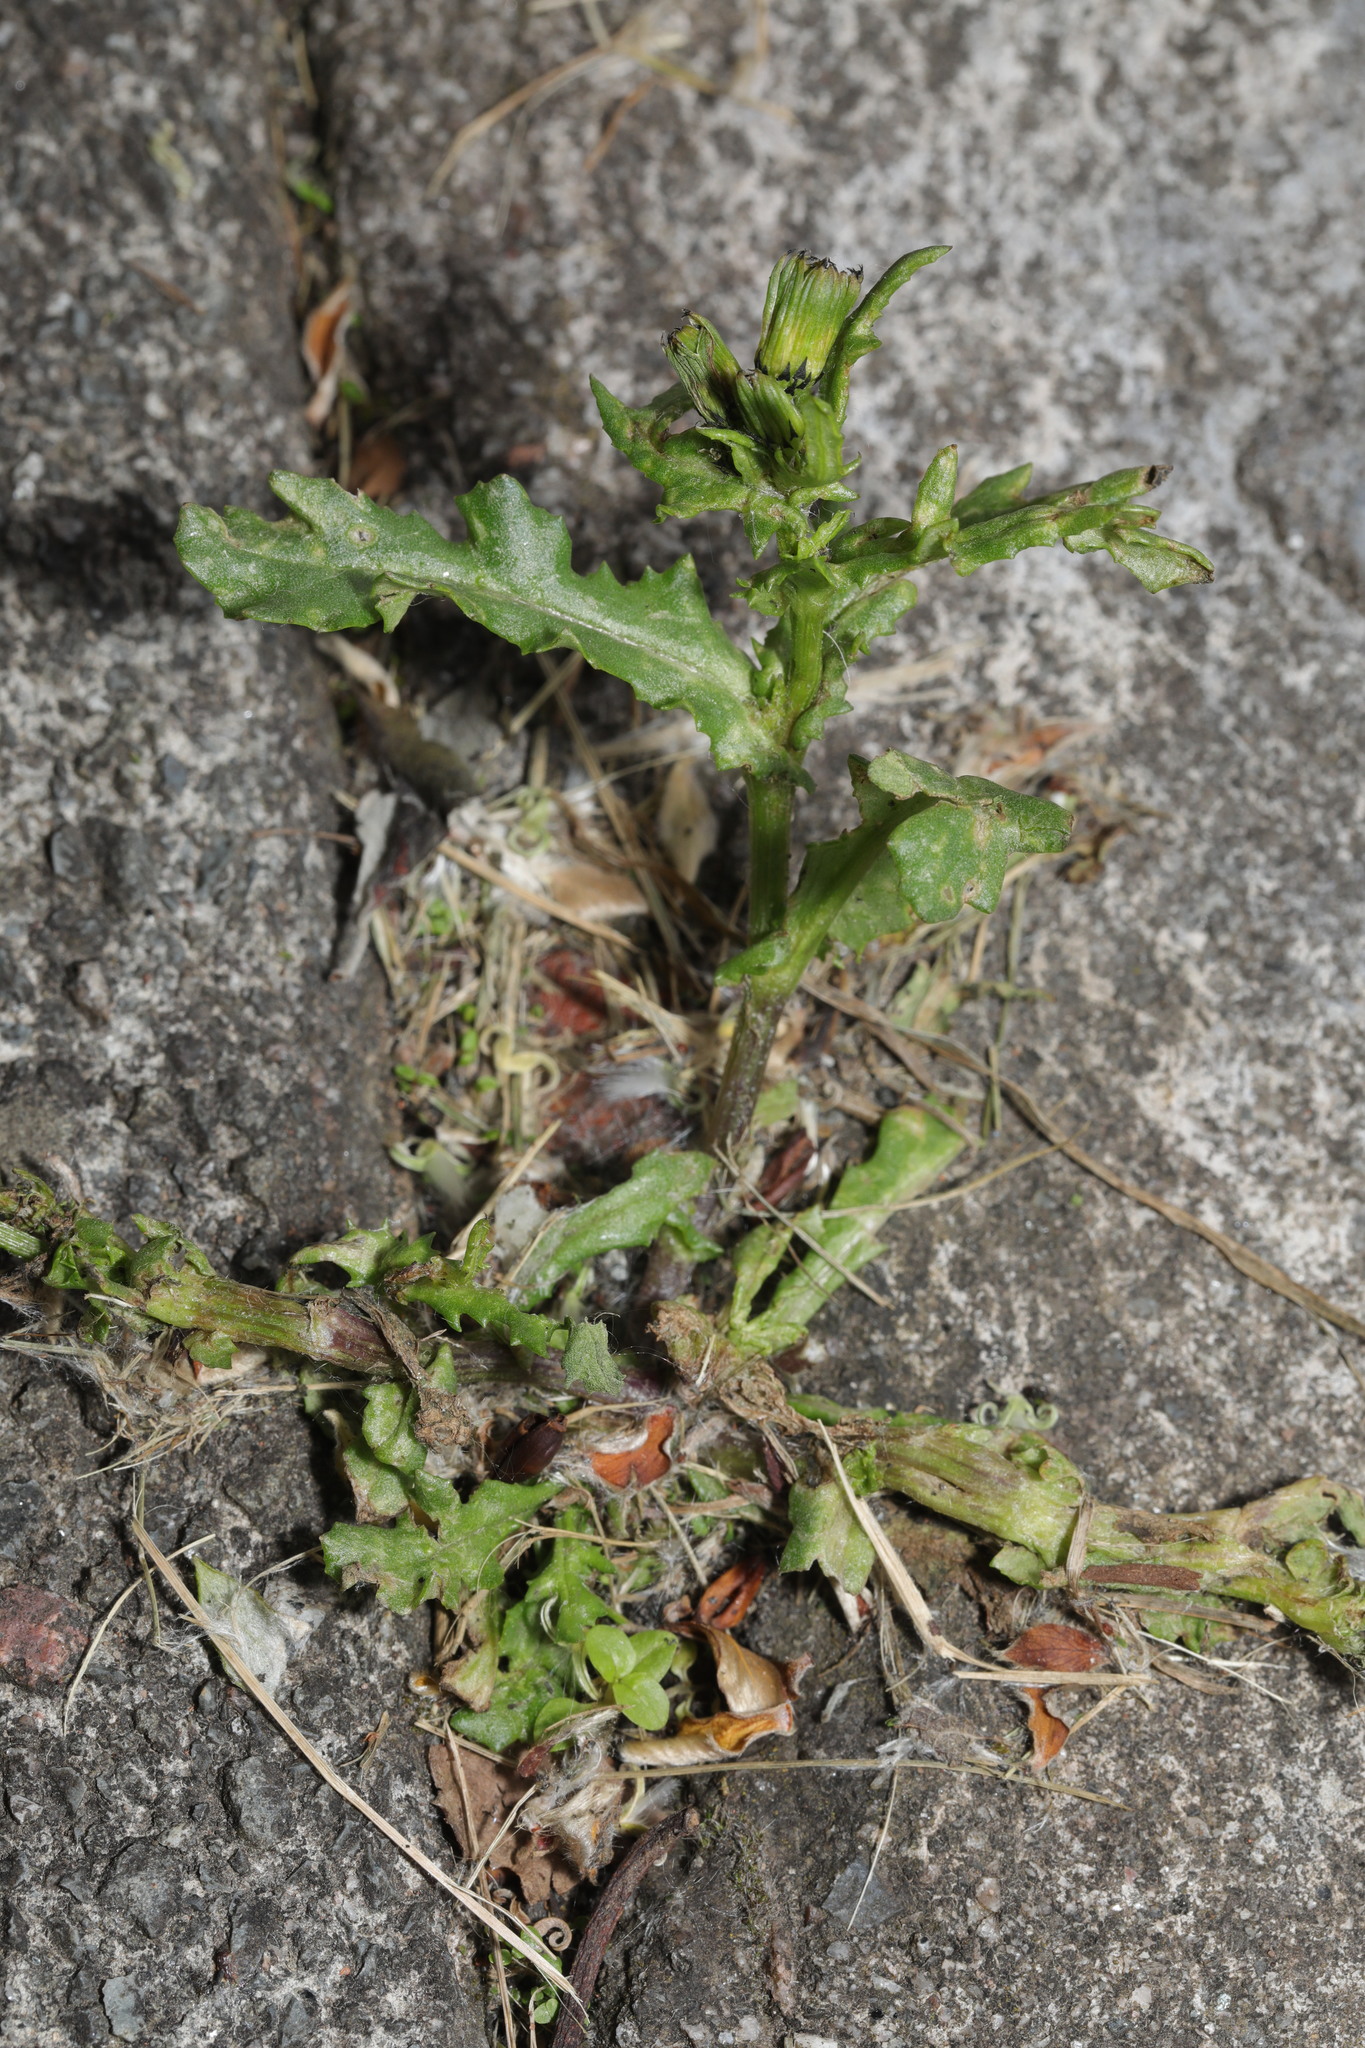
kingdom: Plantae
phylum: Tracheophyta
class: Magnoliopsida
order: Asterales
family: Asteraceae
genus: Senecio
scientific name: Senecio vulgaris
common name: Old-man-in-the-spring
